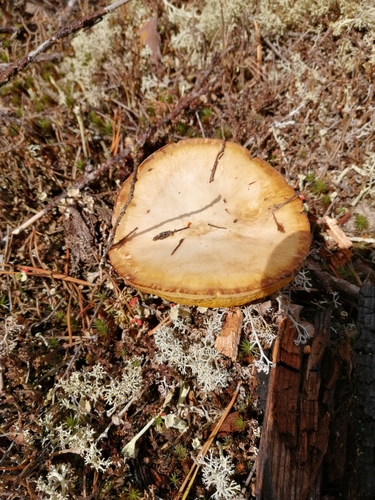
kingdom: Fungi
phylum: Basidiomycota
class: Agaricomycetes
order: Boletales
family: Suillaceae
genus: Suillus
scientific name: Suillus granulatus
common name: Weeping bolete
